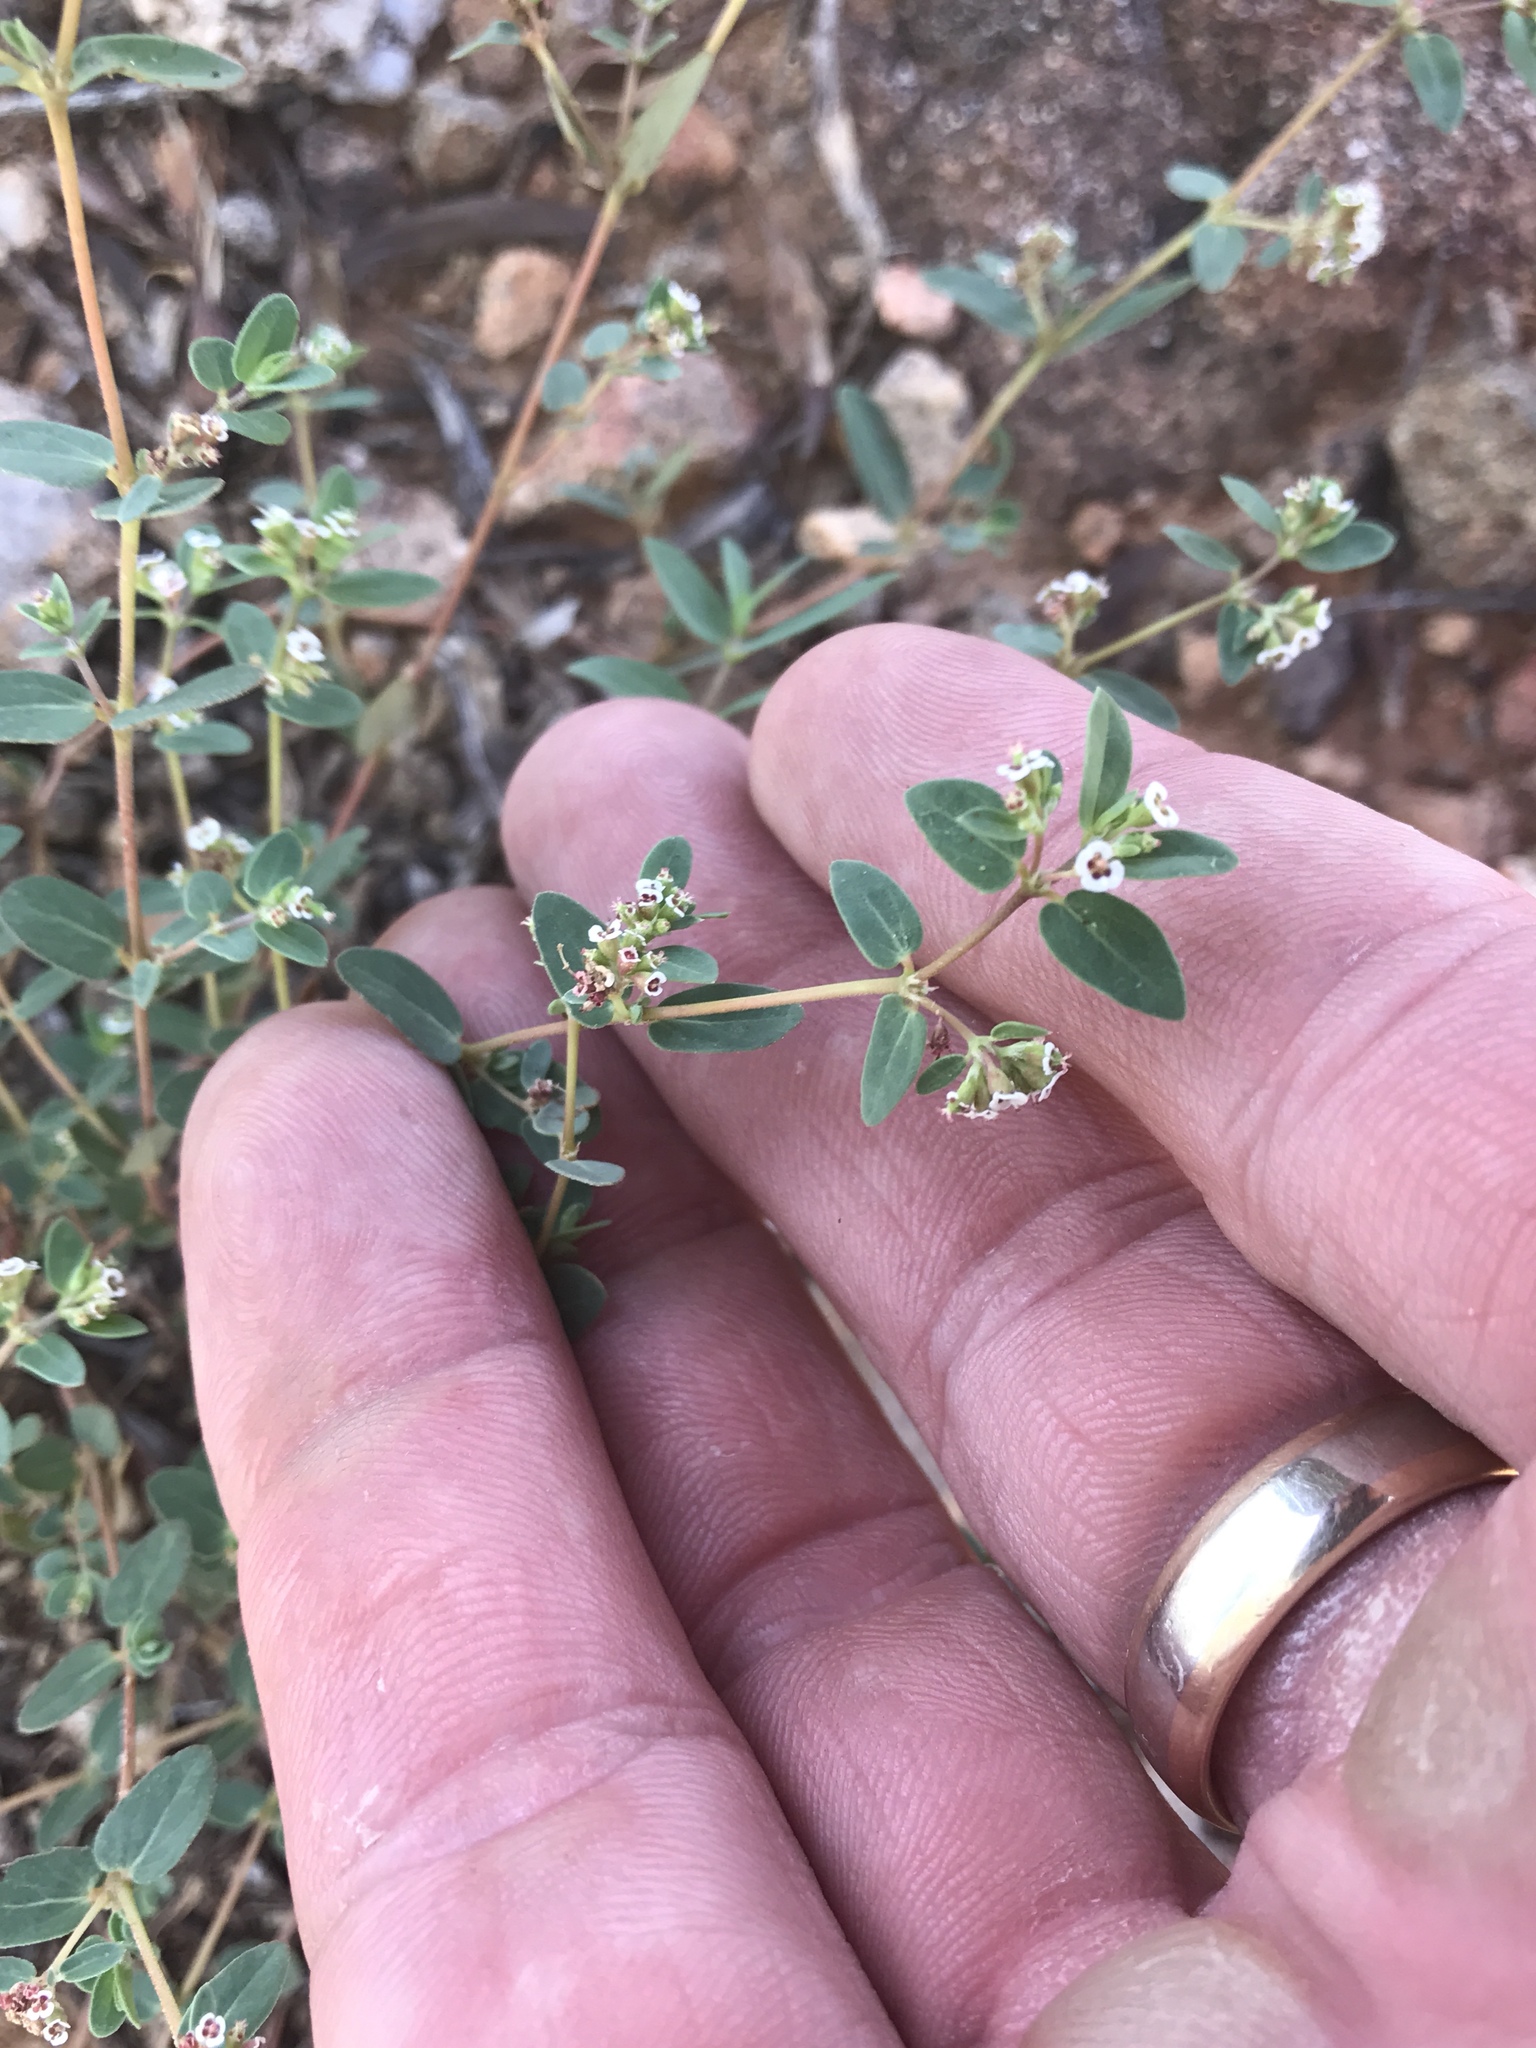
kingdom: Plantae
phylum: Tracheophyta
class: Magnoliopsida
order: Malpighiales
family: Euphorbiaceae
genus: Euphorbia
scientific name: Euphorbia capitellata
